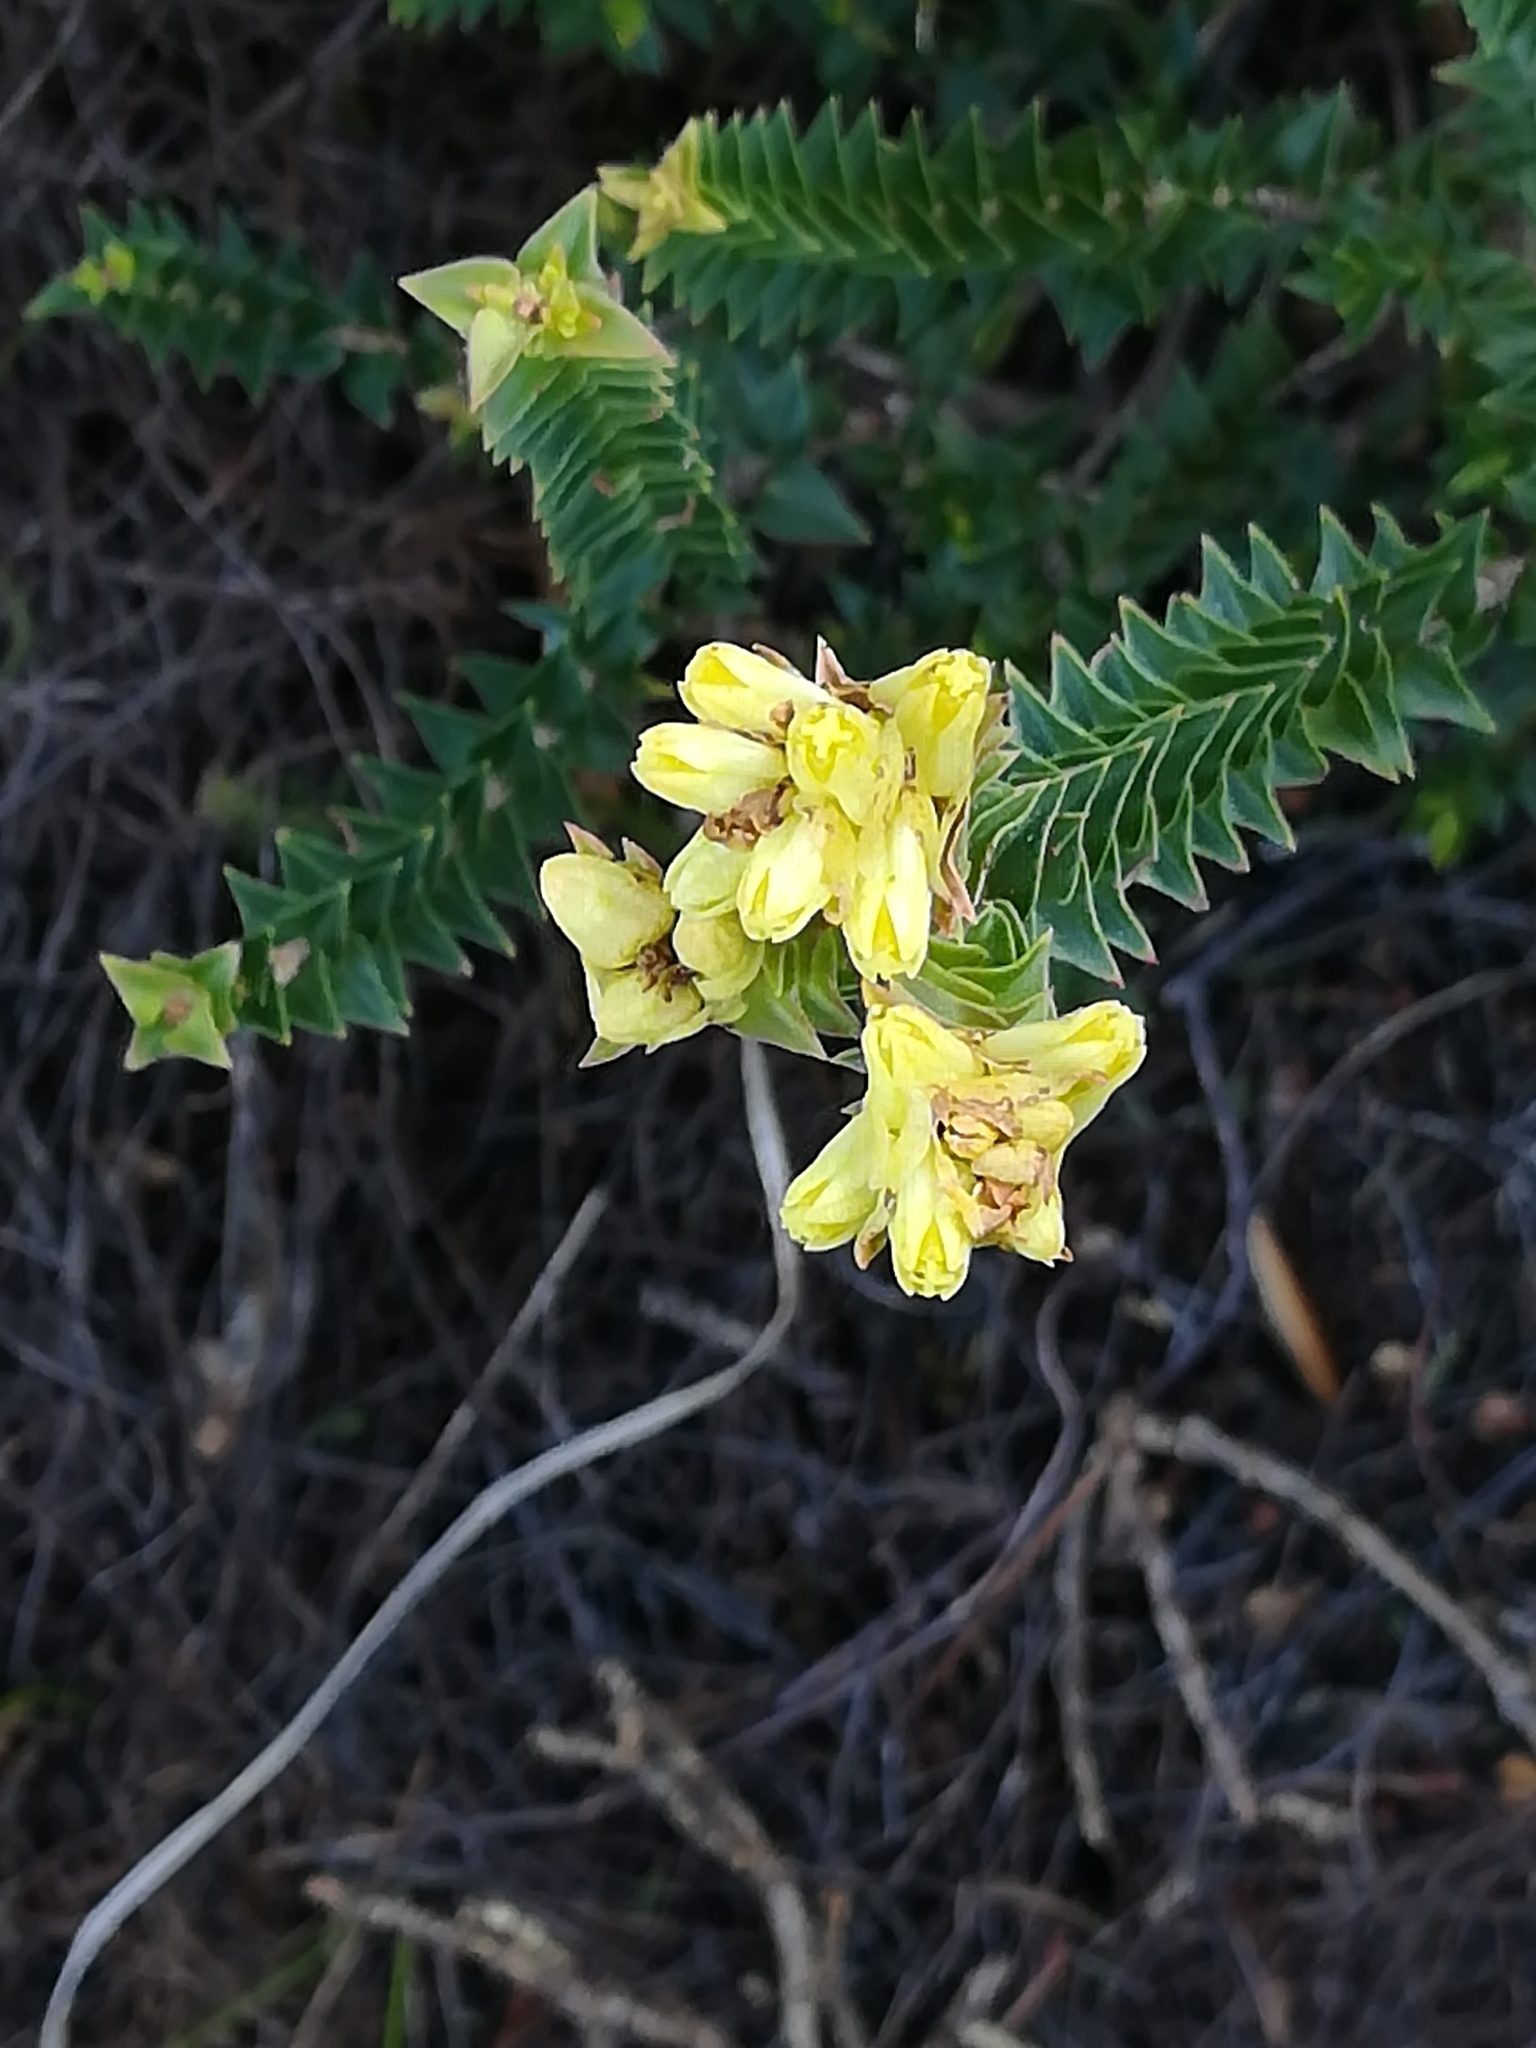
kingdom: Plantae
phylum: Tracheophyta
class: Magnoliopsida
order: Myrtales
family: Penaeaceae
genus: Penaea
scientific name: Penaea mucronata
